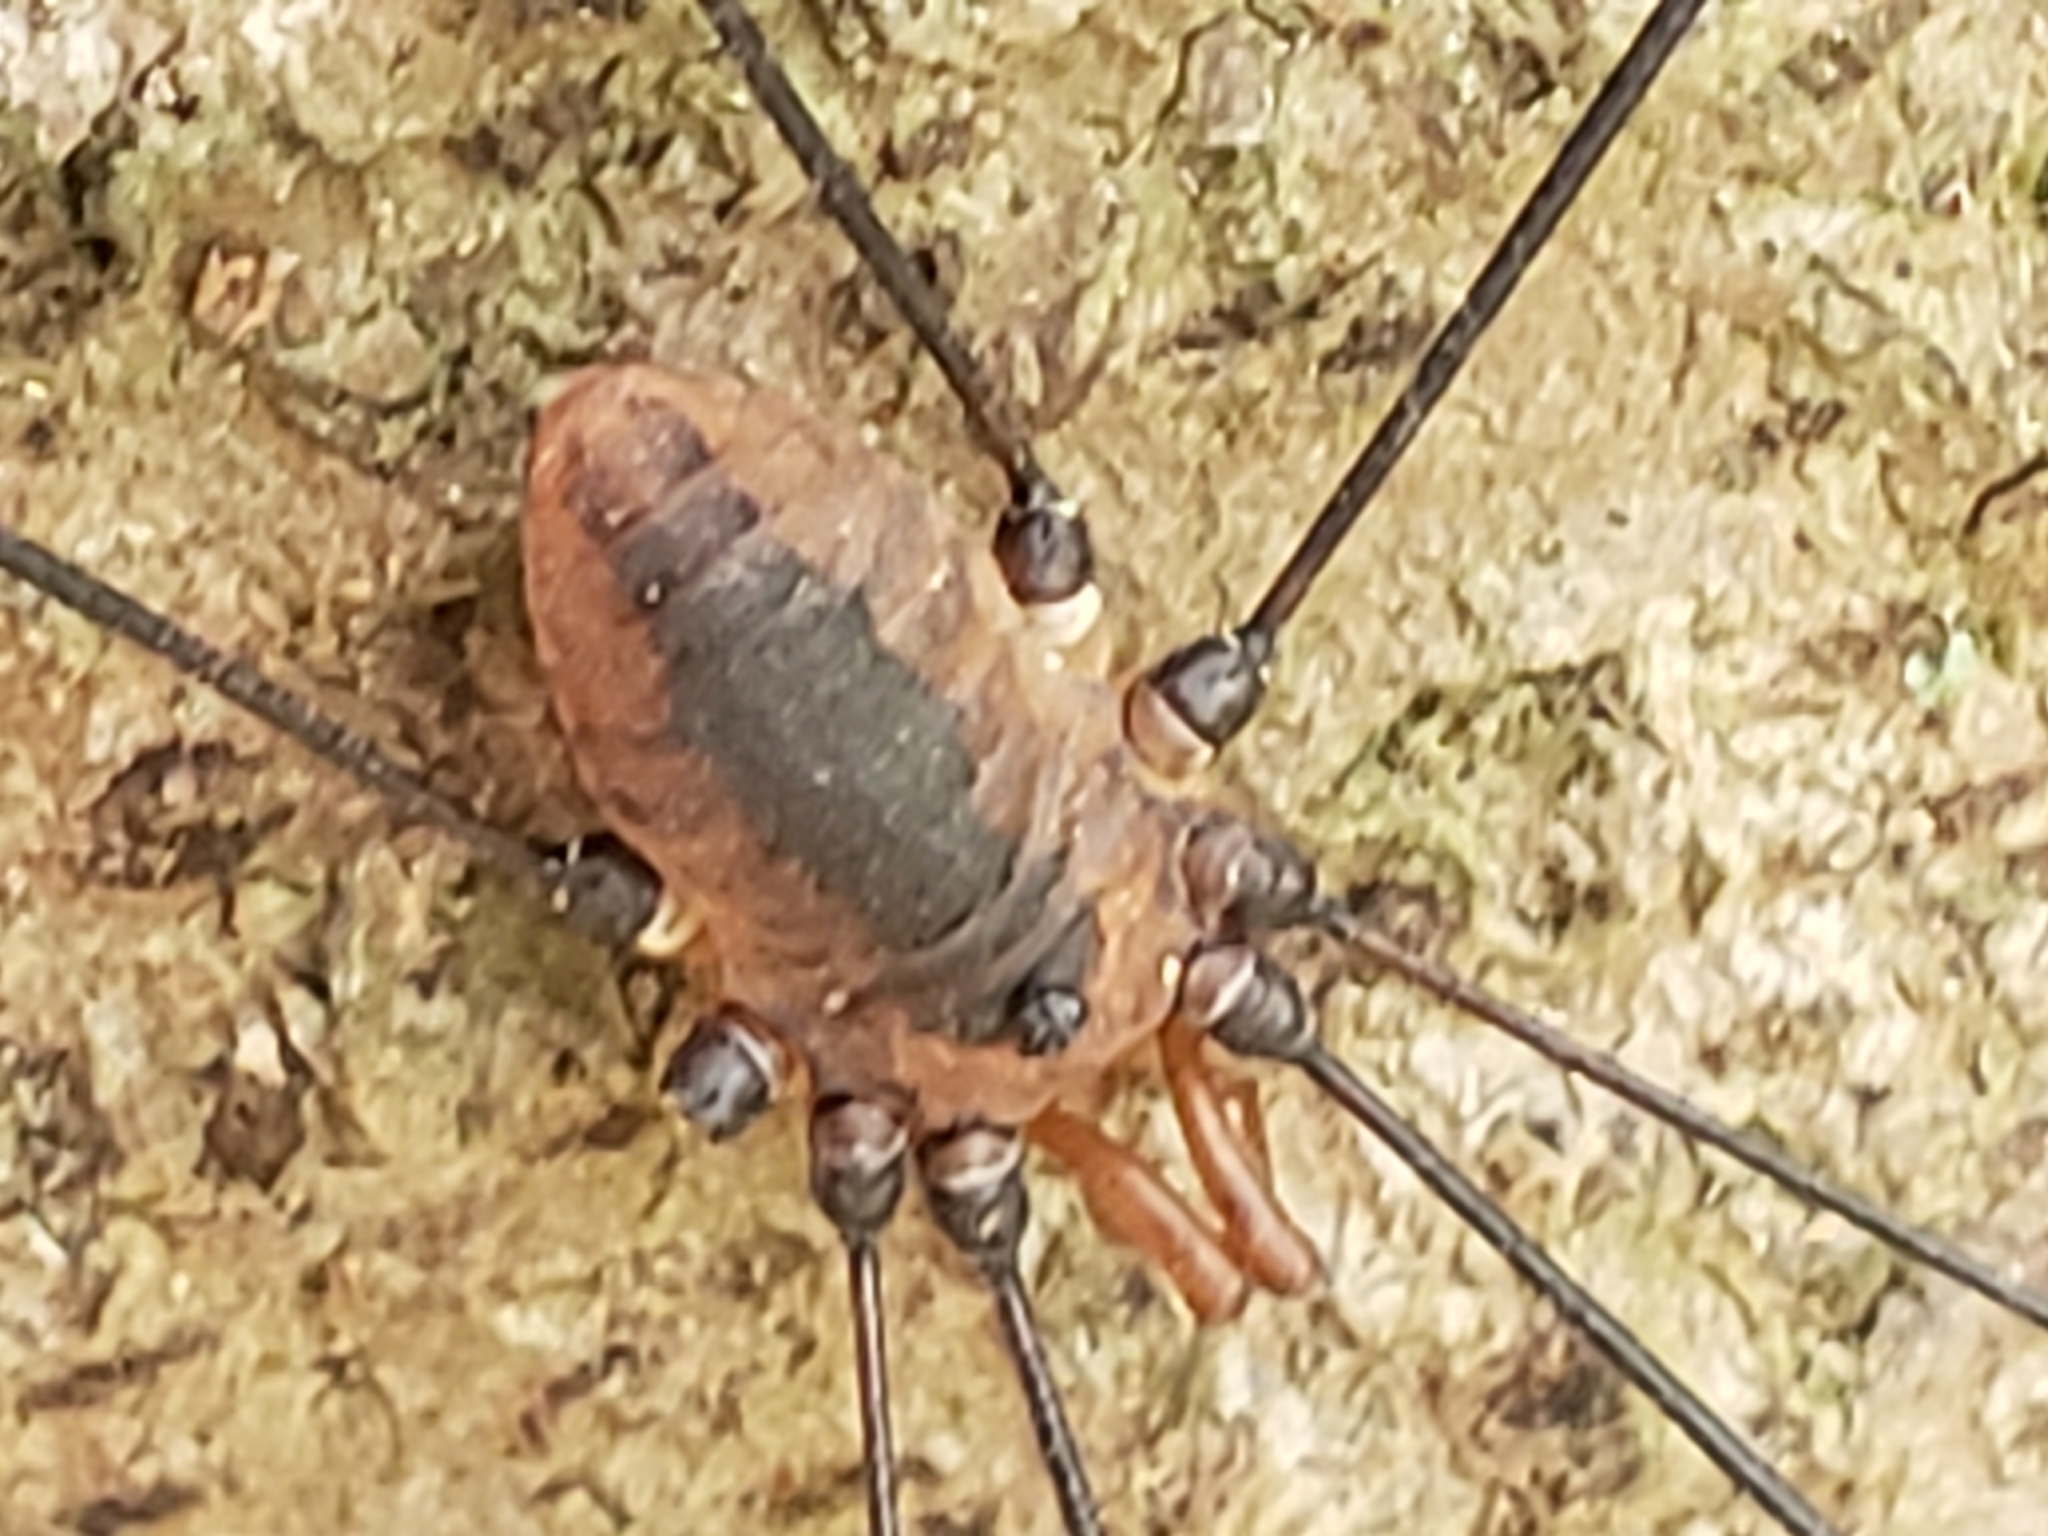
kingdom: Animalia
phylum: Arthropoda
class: Arachnida
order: Opiliones
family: Sclerosomatidae
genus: Leiobunum
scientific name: Leiobunum vittatum
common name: Eastern harvestman
